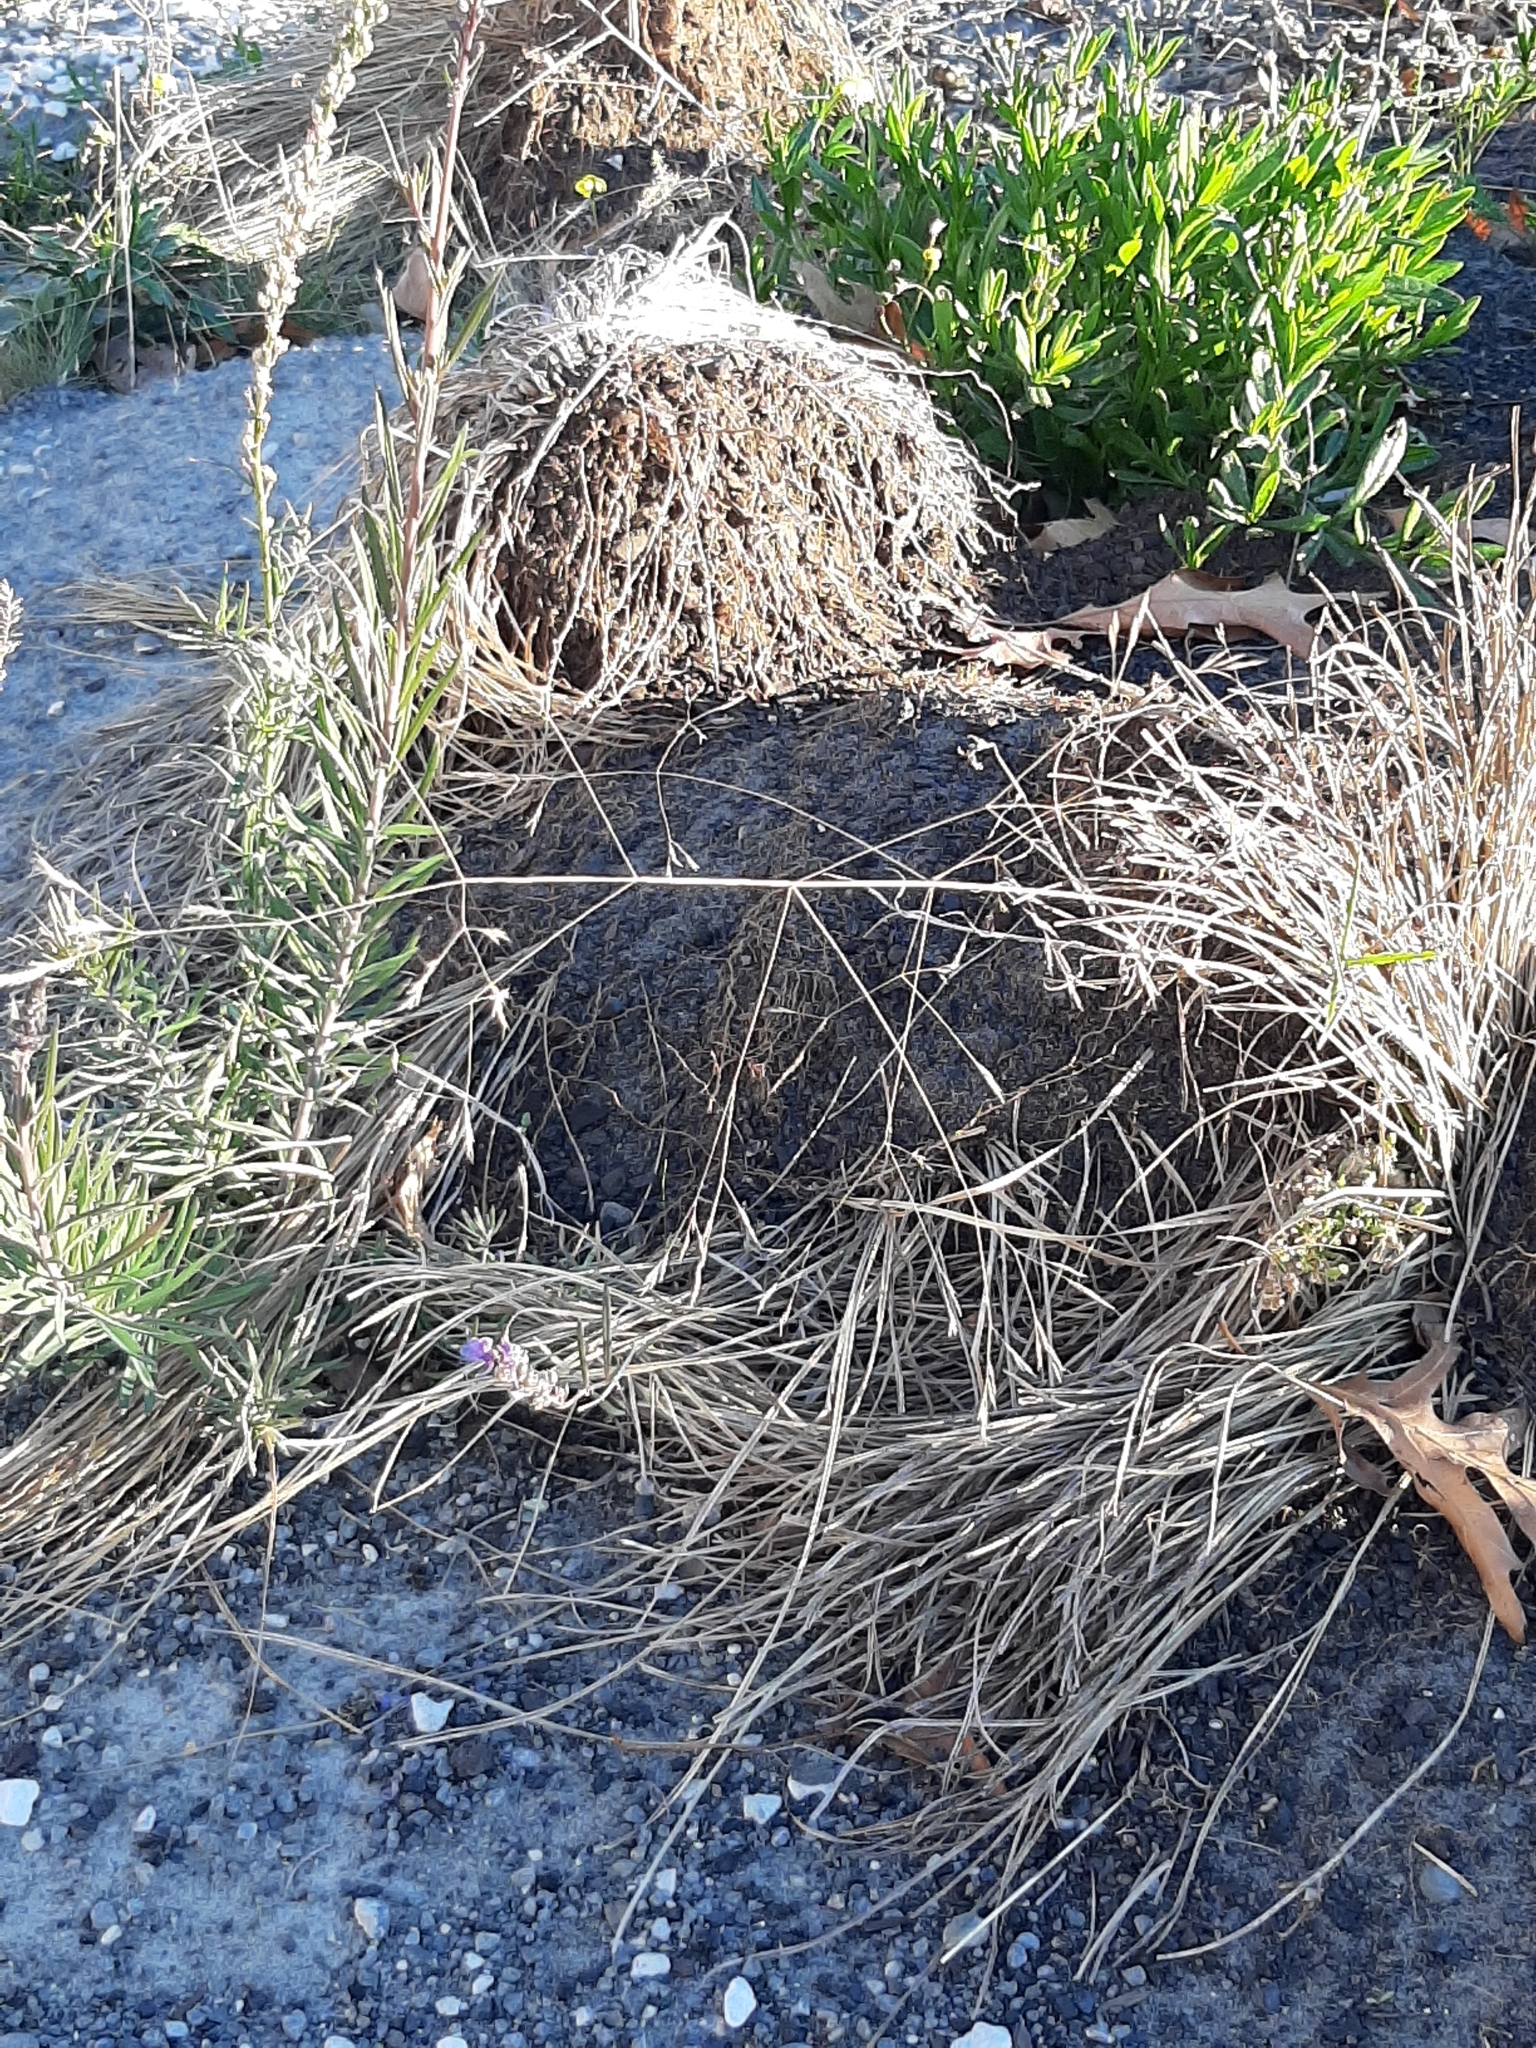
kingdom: Plantae
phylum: Tracheophyta
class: Liliopsida
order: Poales
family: Poaceae
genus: Lachnagrostis
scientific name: Lachnagrostis filiformis
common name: Bentgrass
